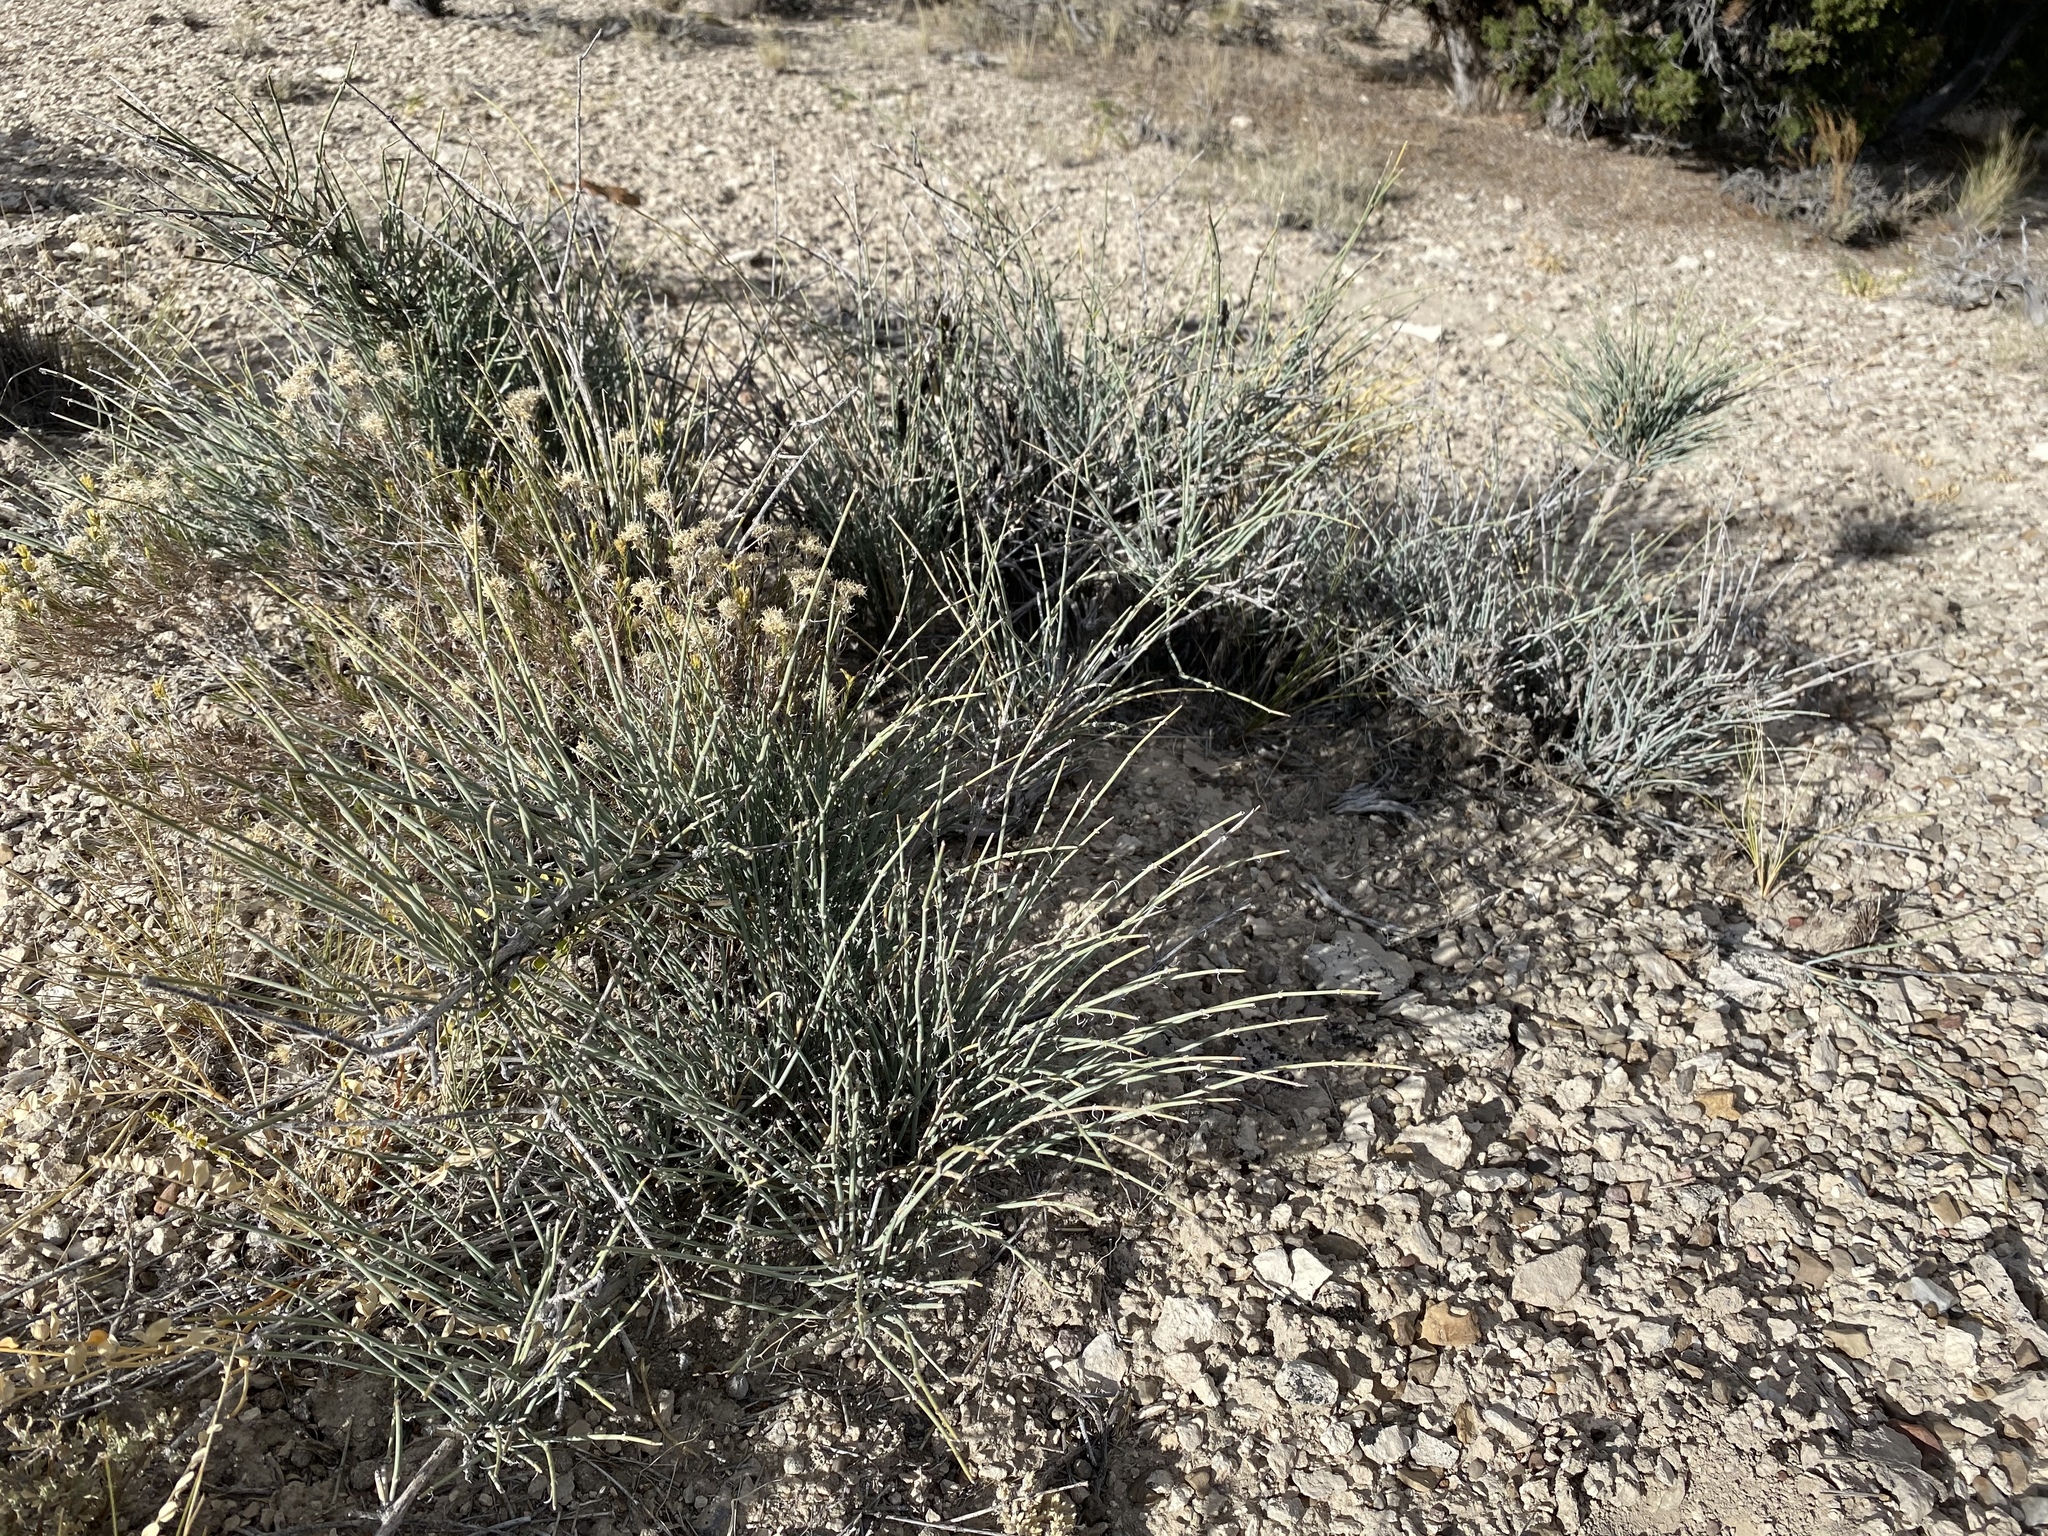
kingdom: Plantae
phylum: Tracheophyta
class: Gnetopsida
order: Ephedrales
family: Ephedraceae
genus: Ephedra
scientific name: Ephedra nevadensis
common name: Gray ephedra
